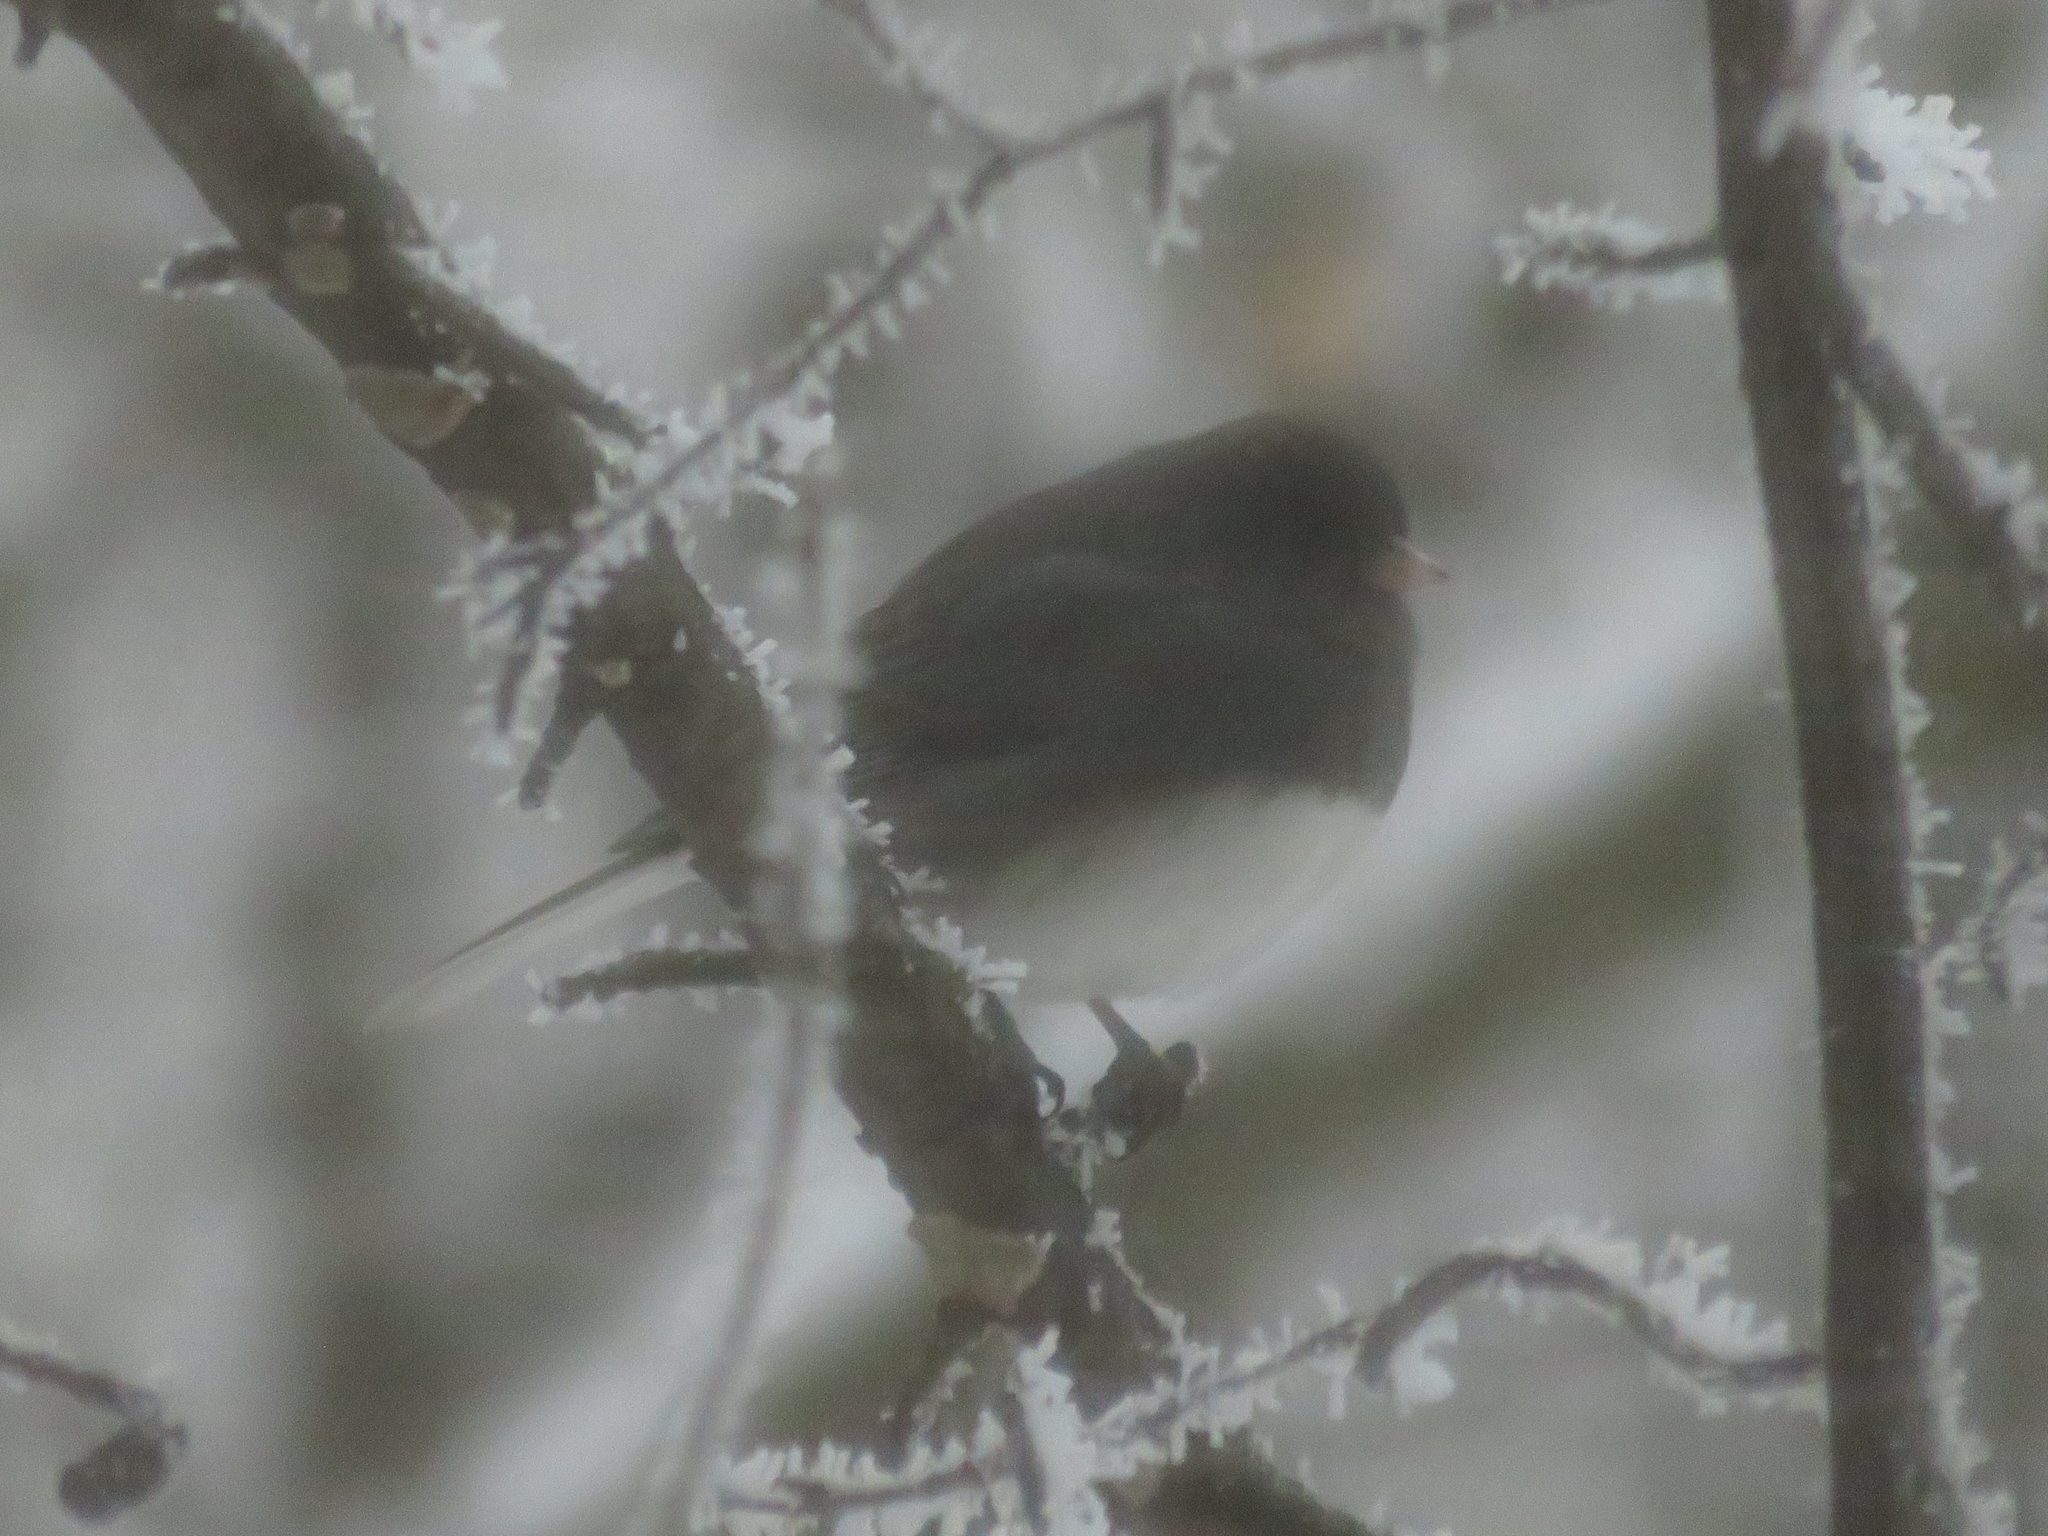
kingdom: Animalia
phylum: Chordata
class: Aves
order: Passeriformes
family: Passerellidae
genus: Junco
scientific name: Junco hyemalis
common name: Dark-eyed junco
